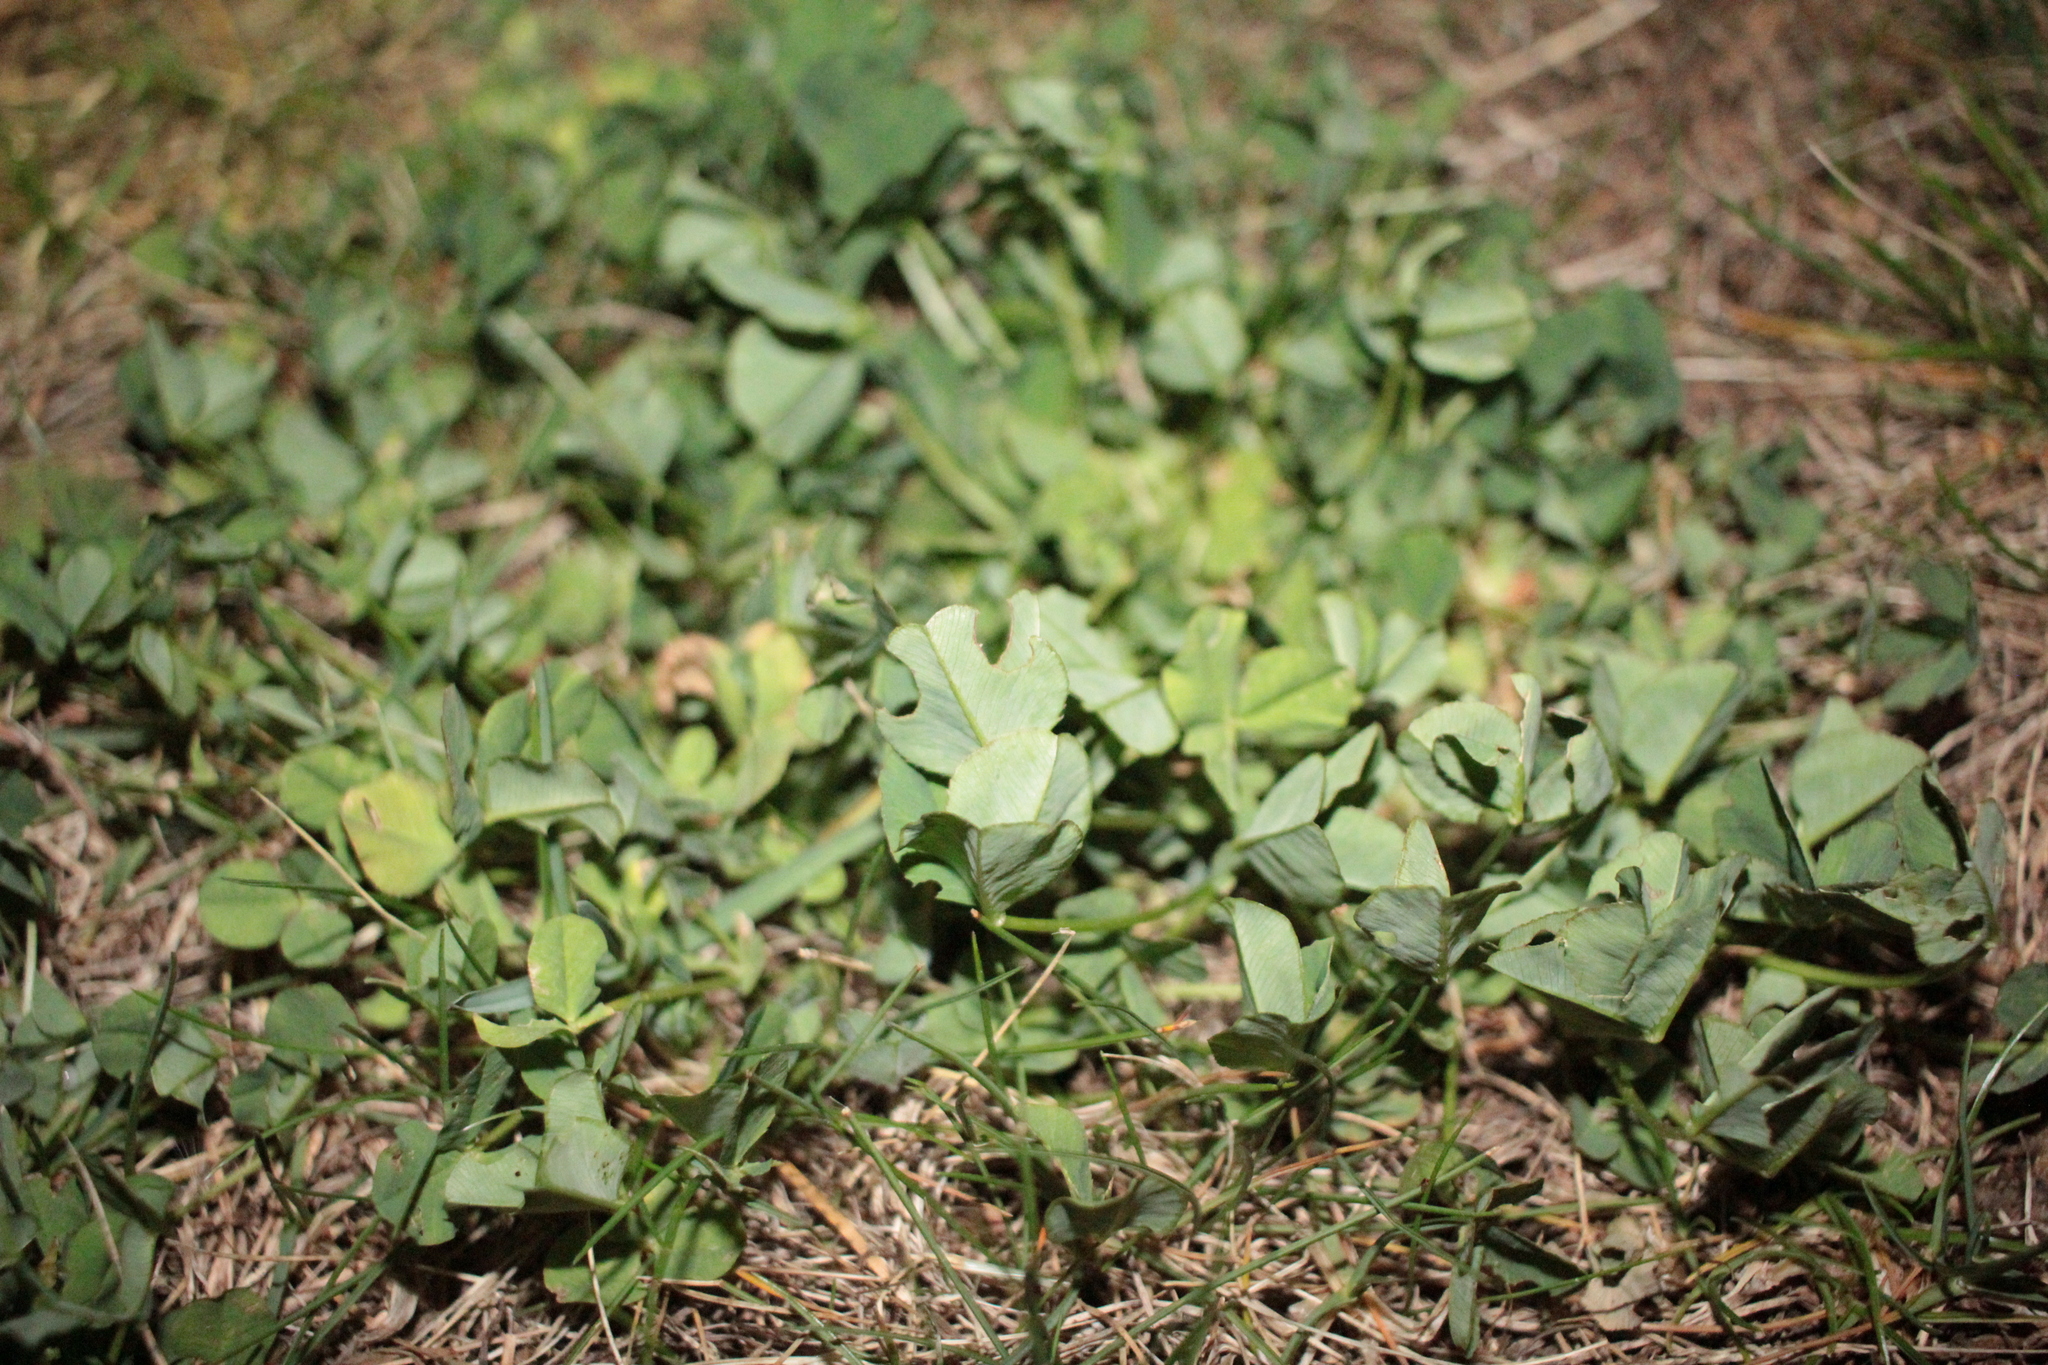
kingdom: Plantae
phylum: Tracheophyta
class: Magnoliopsida
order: Fabales
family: Fabaceae
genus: Trifolium
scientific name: Trifolium repens
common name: White clover
